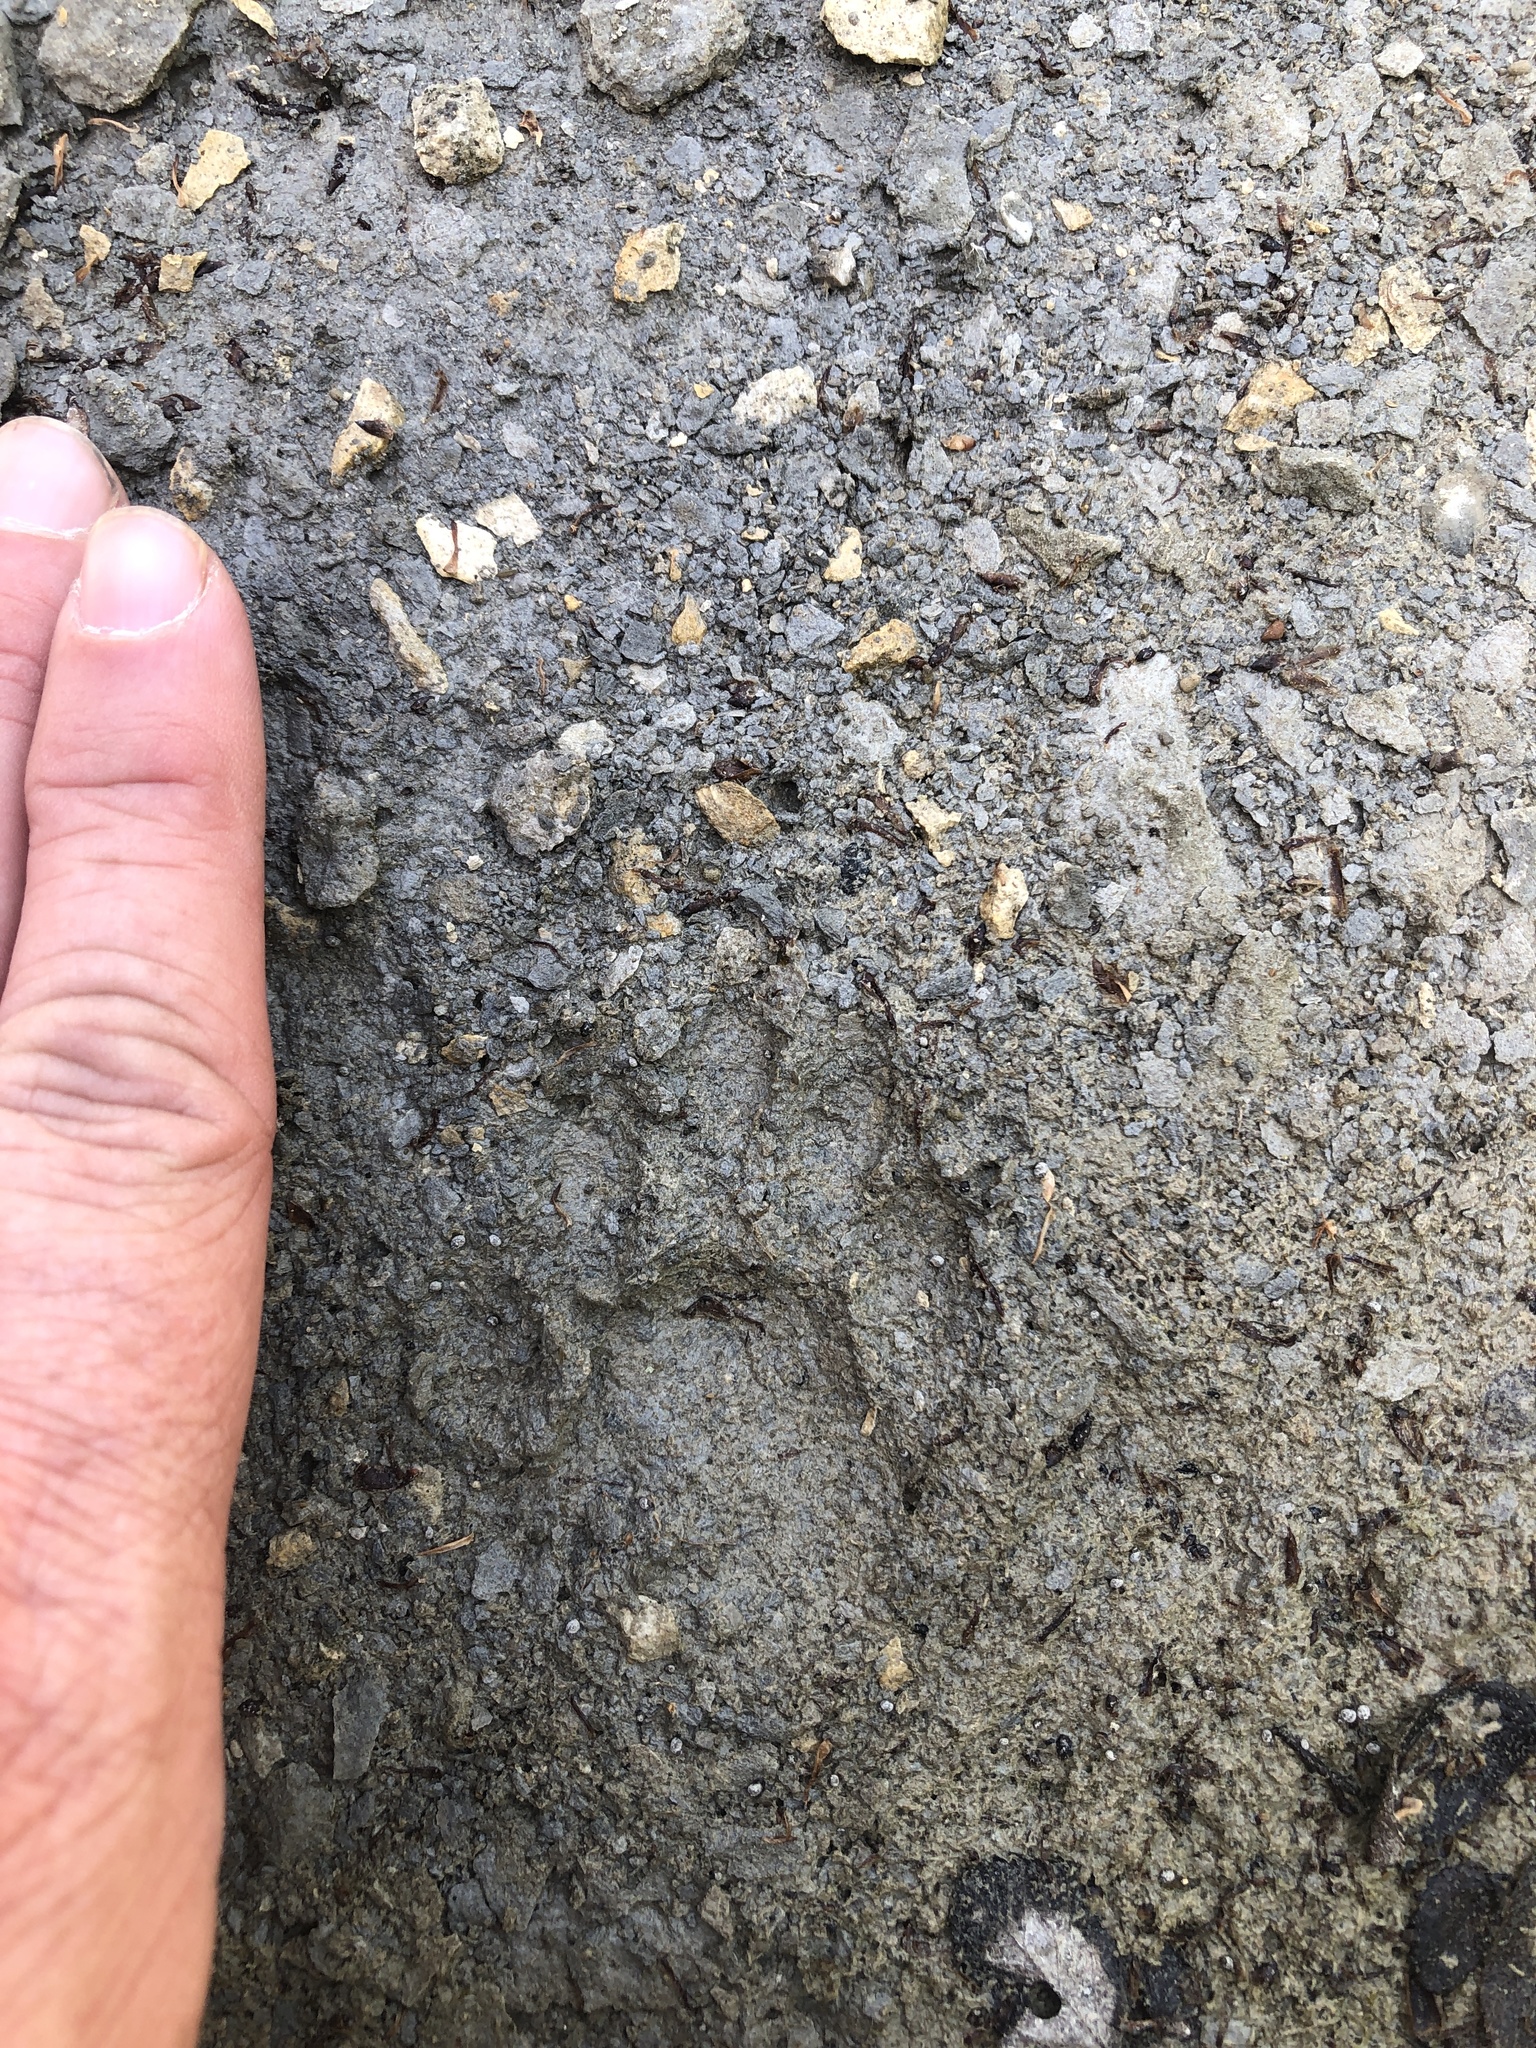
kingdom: Animalia
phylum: Chordata
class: Mammalia
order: Carnivora
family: Procyonidae
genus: Procyon
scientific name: Procyon lotor
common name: Raccoon
